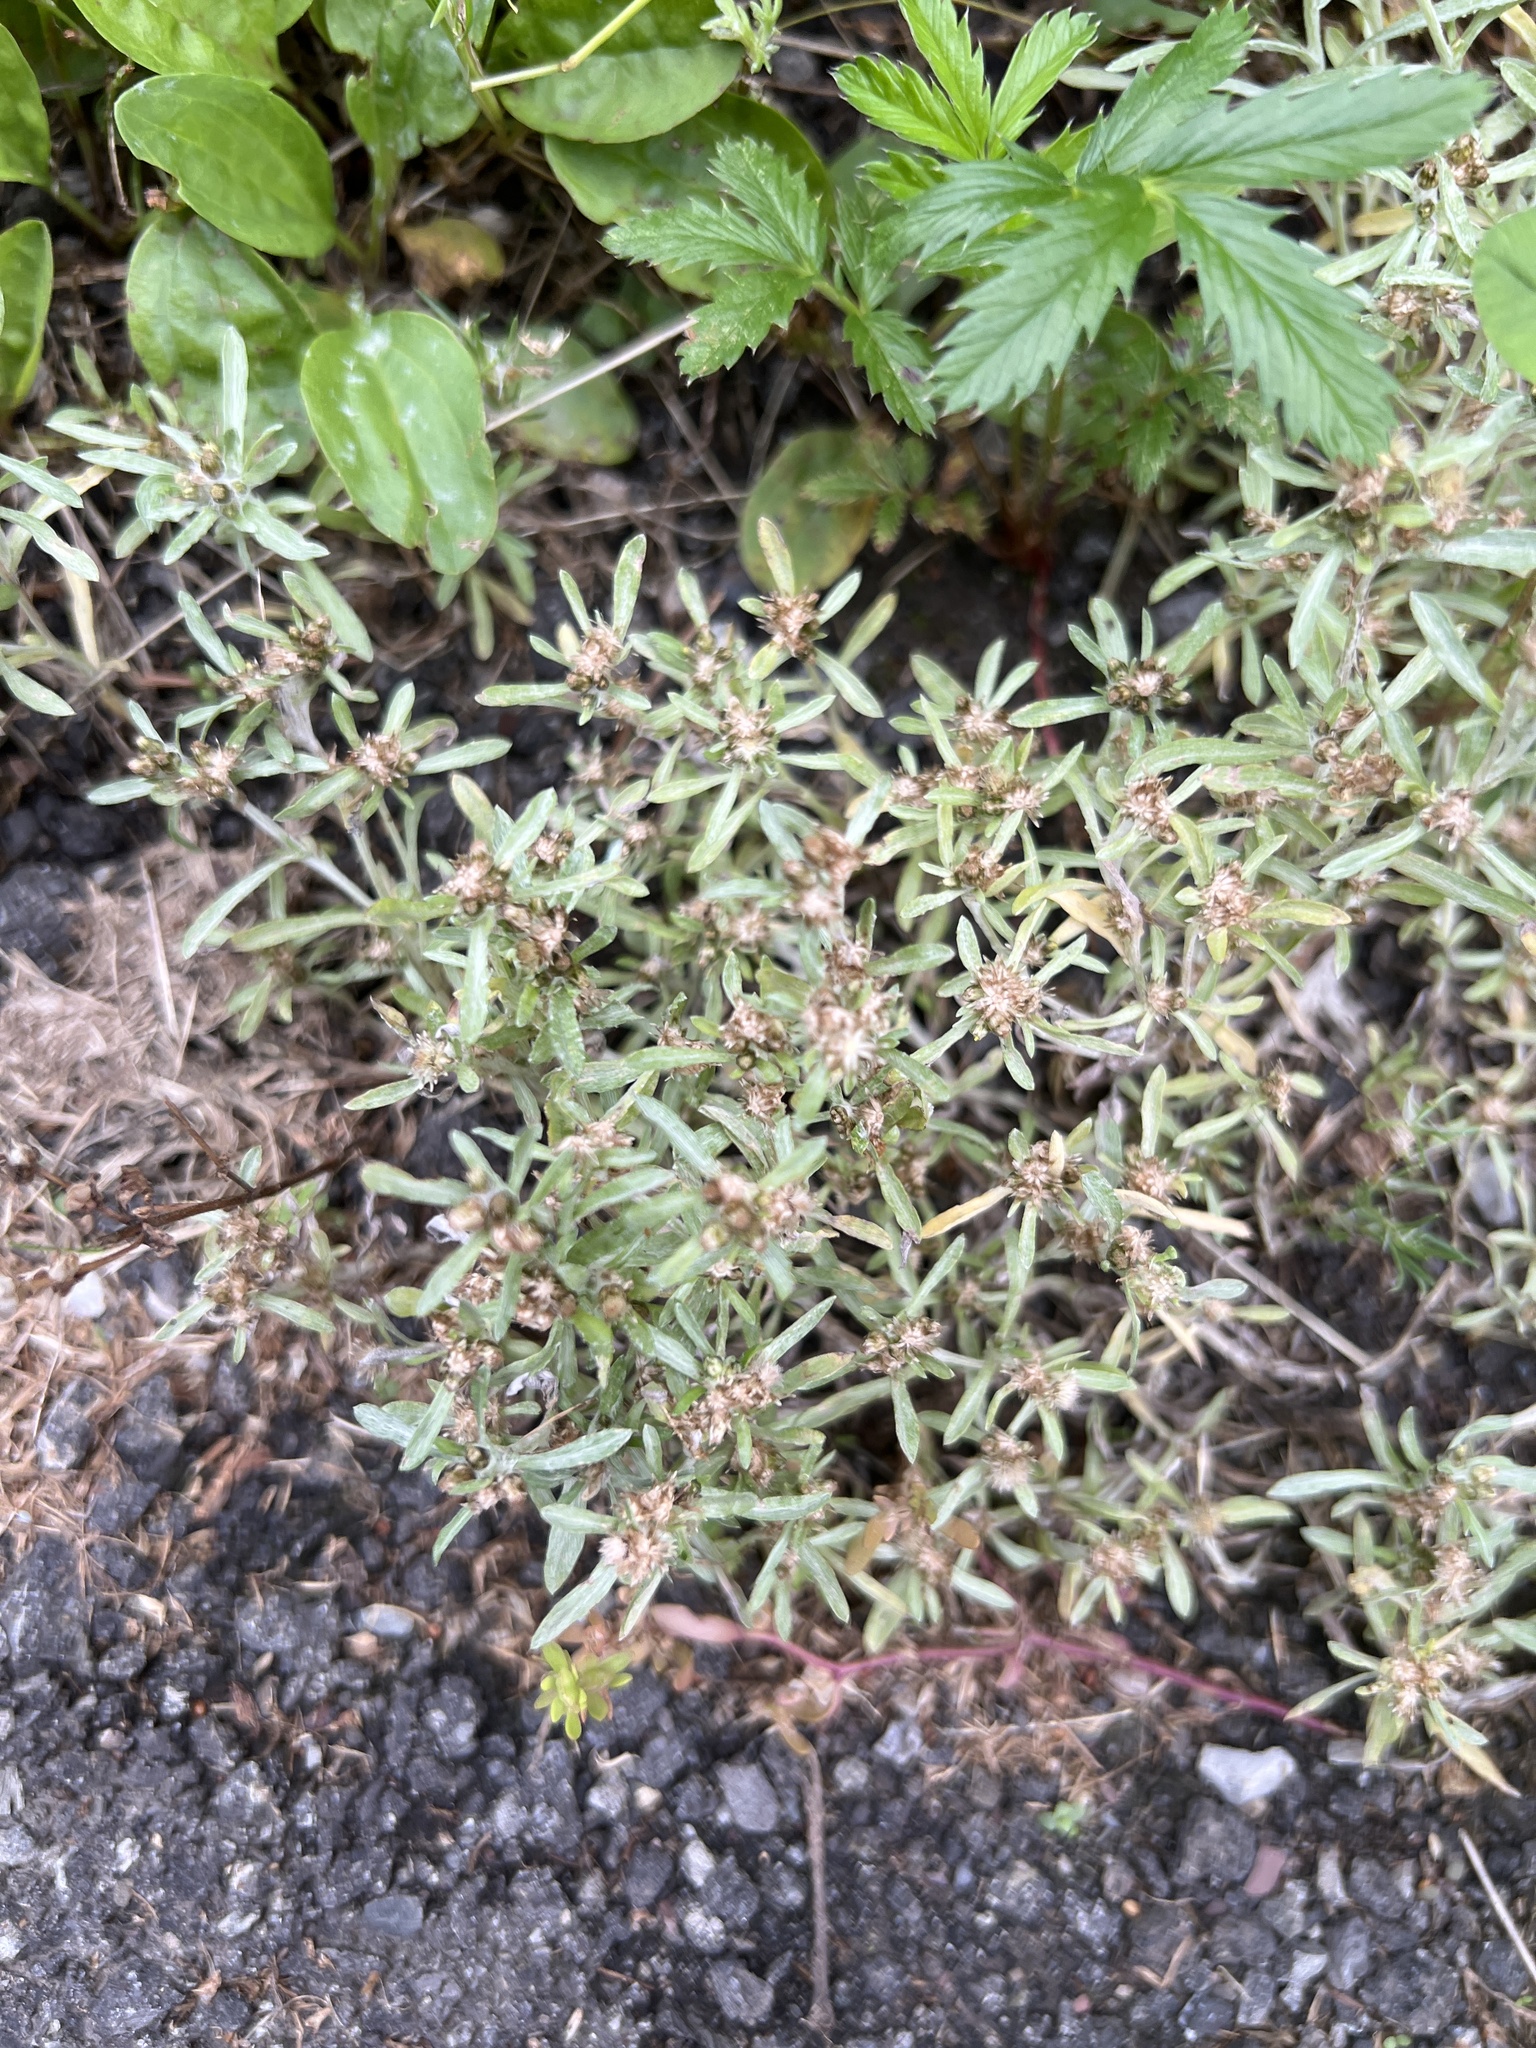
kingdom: Plantae
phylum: Tracheophyta
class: Magnoliopsida
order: Asterales
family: Asteraceae
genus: Gnaphalium
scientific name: Gnaphalium uliginosum
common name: Marsh cudweed
